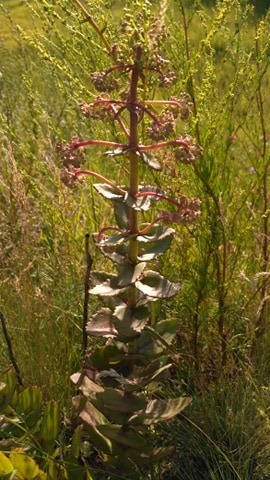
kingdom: Plantae
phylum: Tracheophyta
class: Magnoliopsida
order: Saxifragales
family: Crassulaceae
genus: Hylotelephium
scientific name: Hylotelephium maximum
